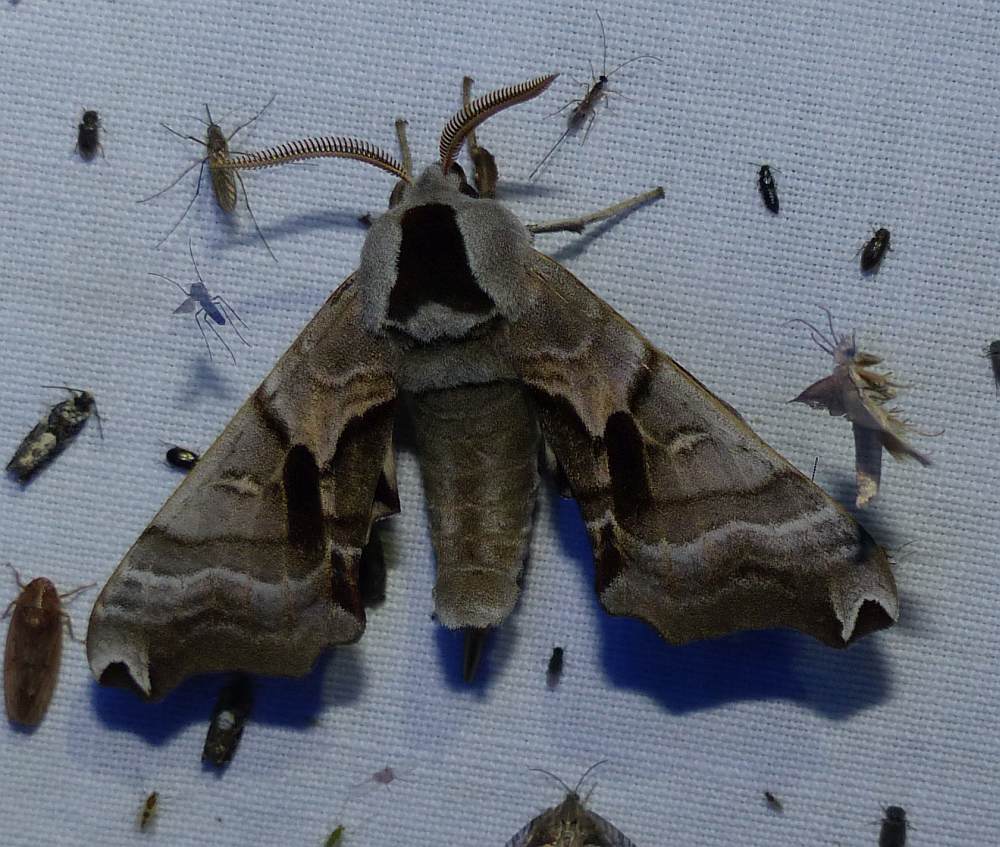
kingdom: Animalia
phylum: Arthropoda
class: Insecta
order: Lepidoptera
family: Sphingidae
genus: Smerinthus
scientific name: Smerinthus jamaicensis
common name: Twin spotted sphinx
